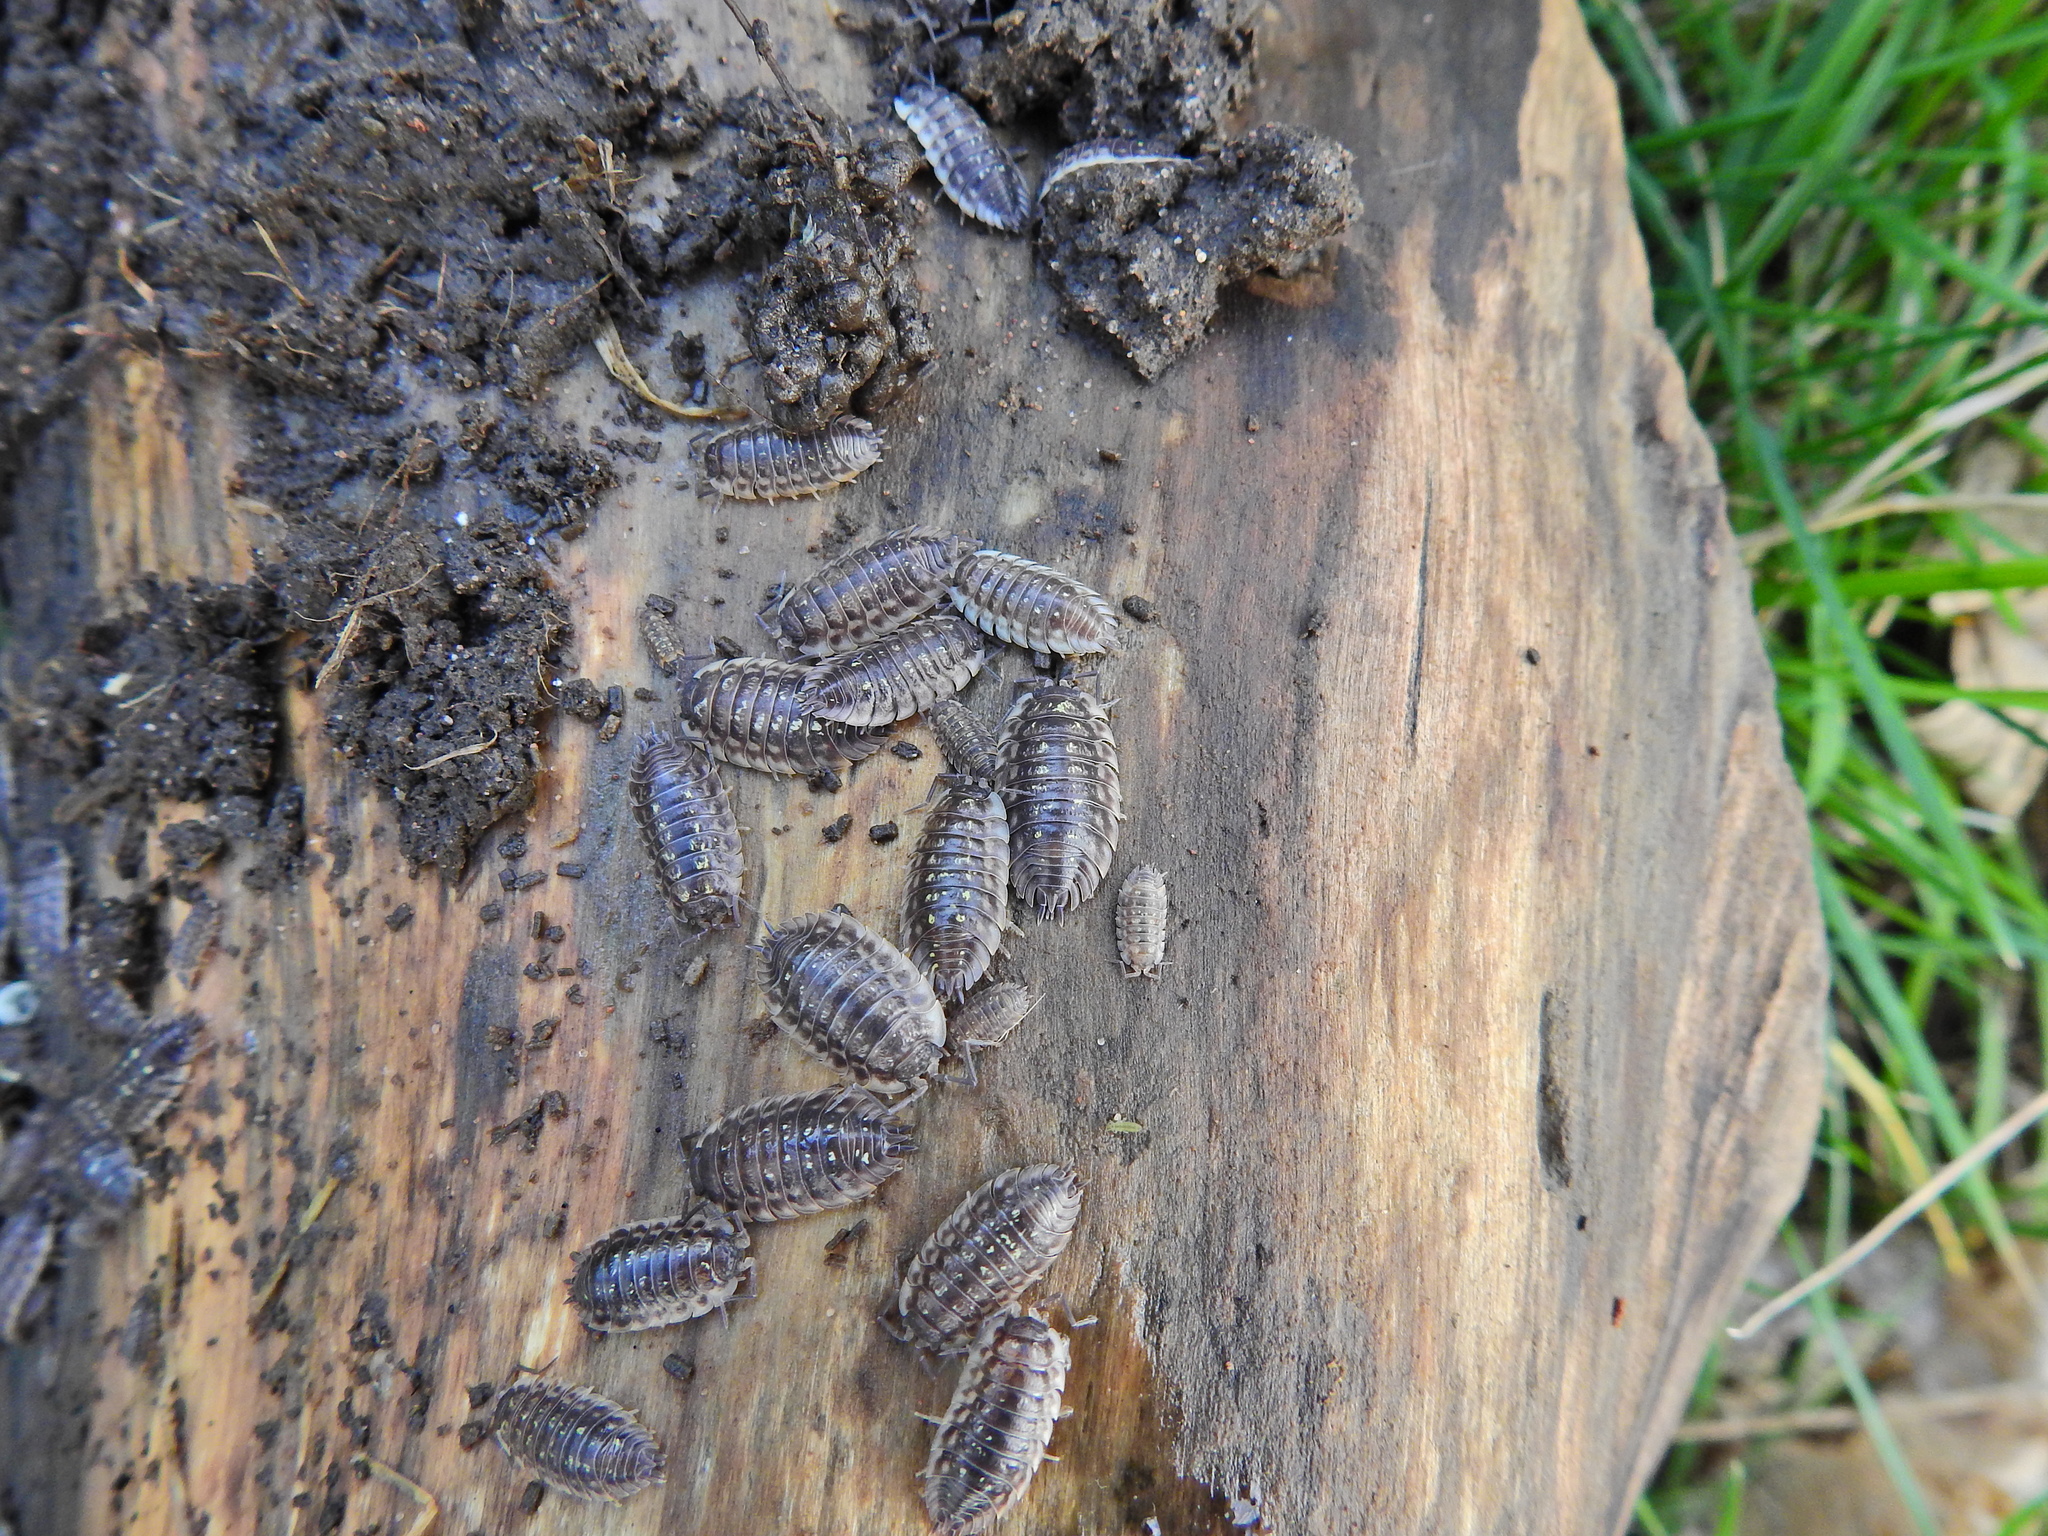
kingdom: Animalia
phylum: Arthropoda
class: Malacostraca
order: Isopoda
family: Oniscidae
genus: Oniscus
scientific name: Oniscus asellus
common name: Common shiny woodlouse
